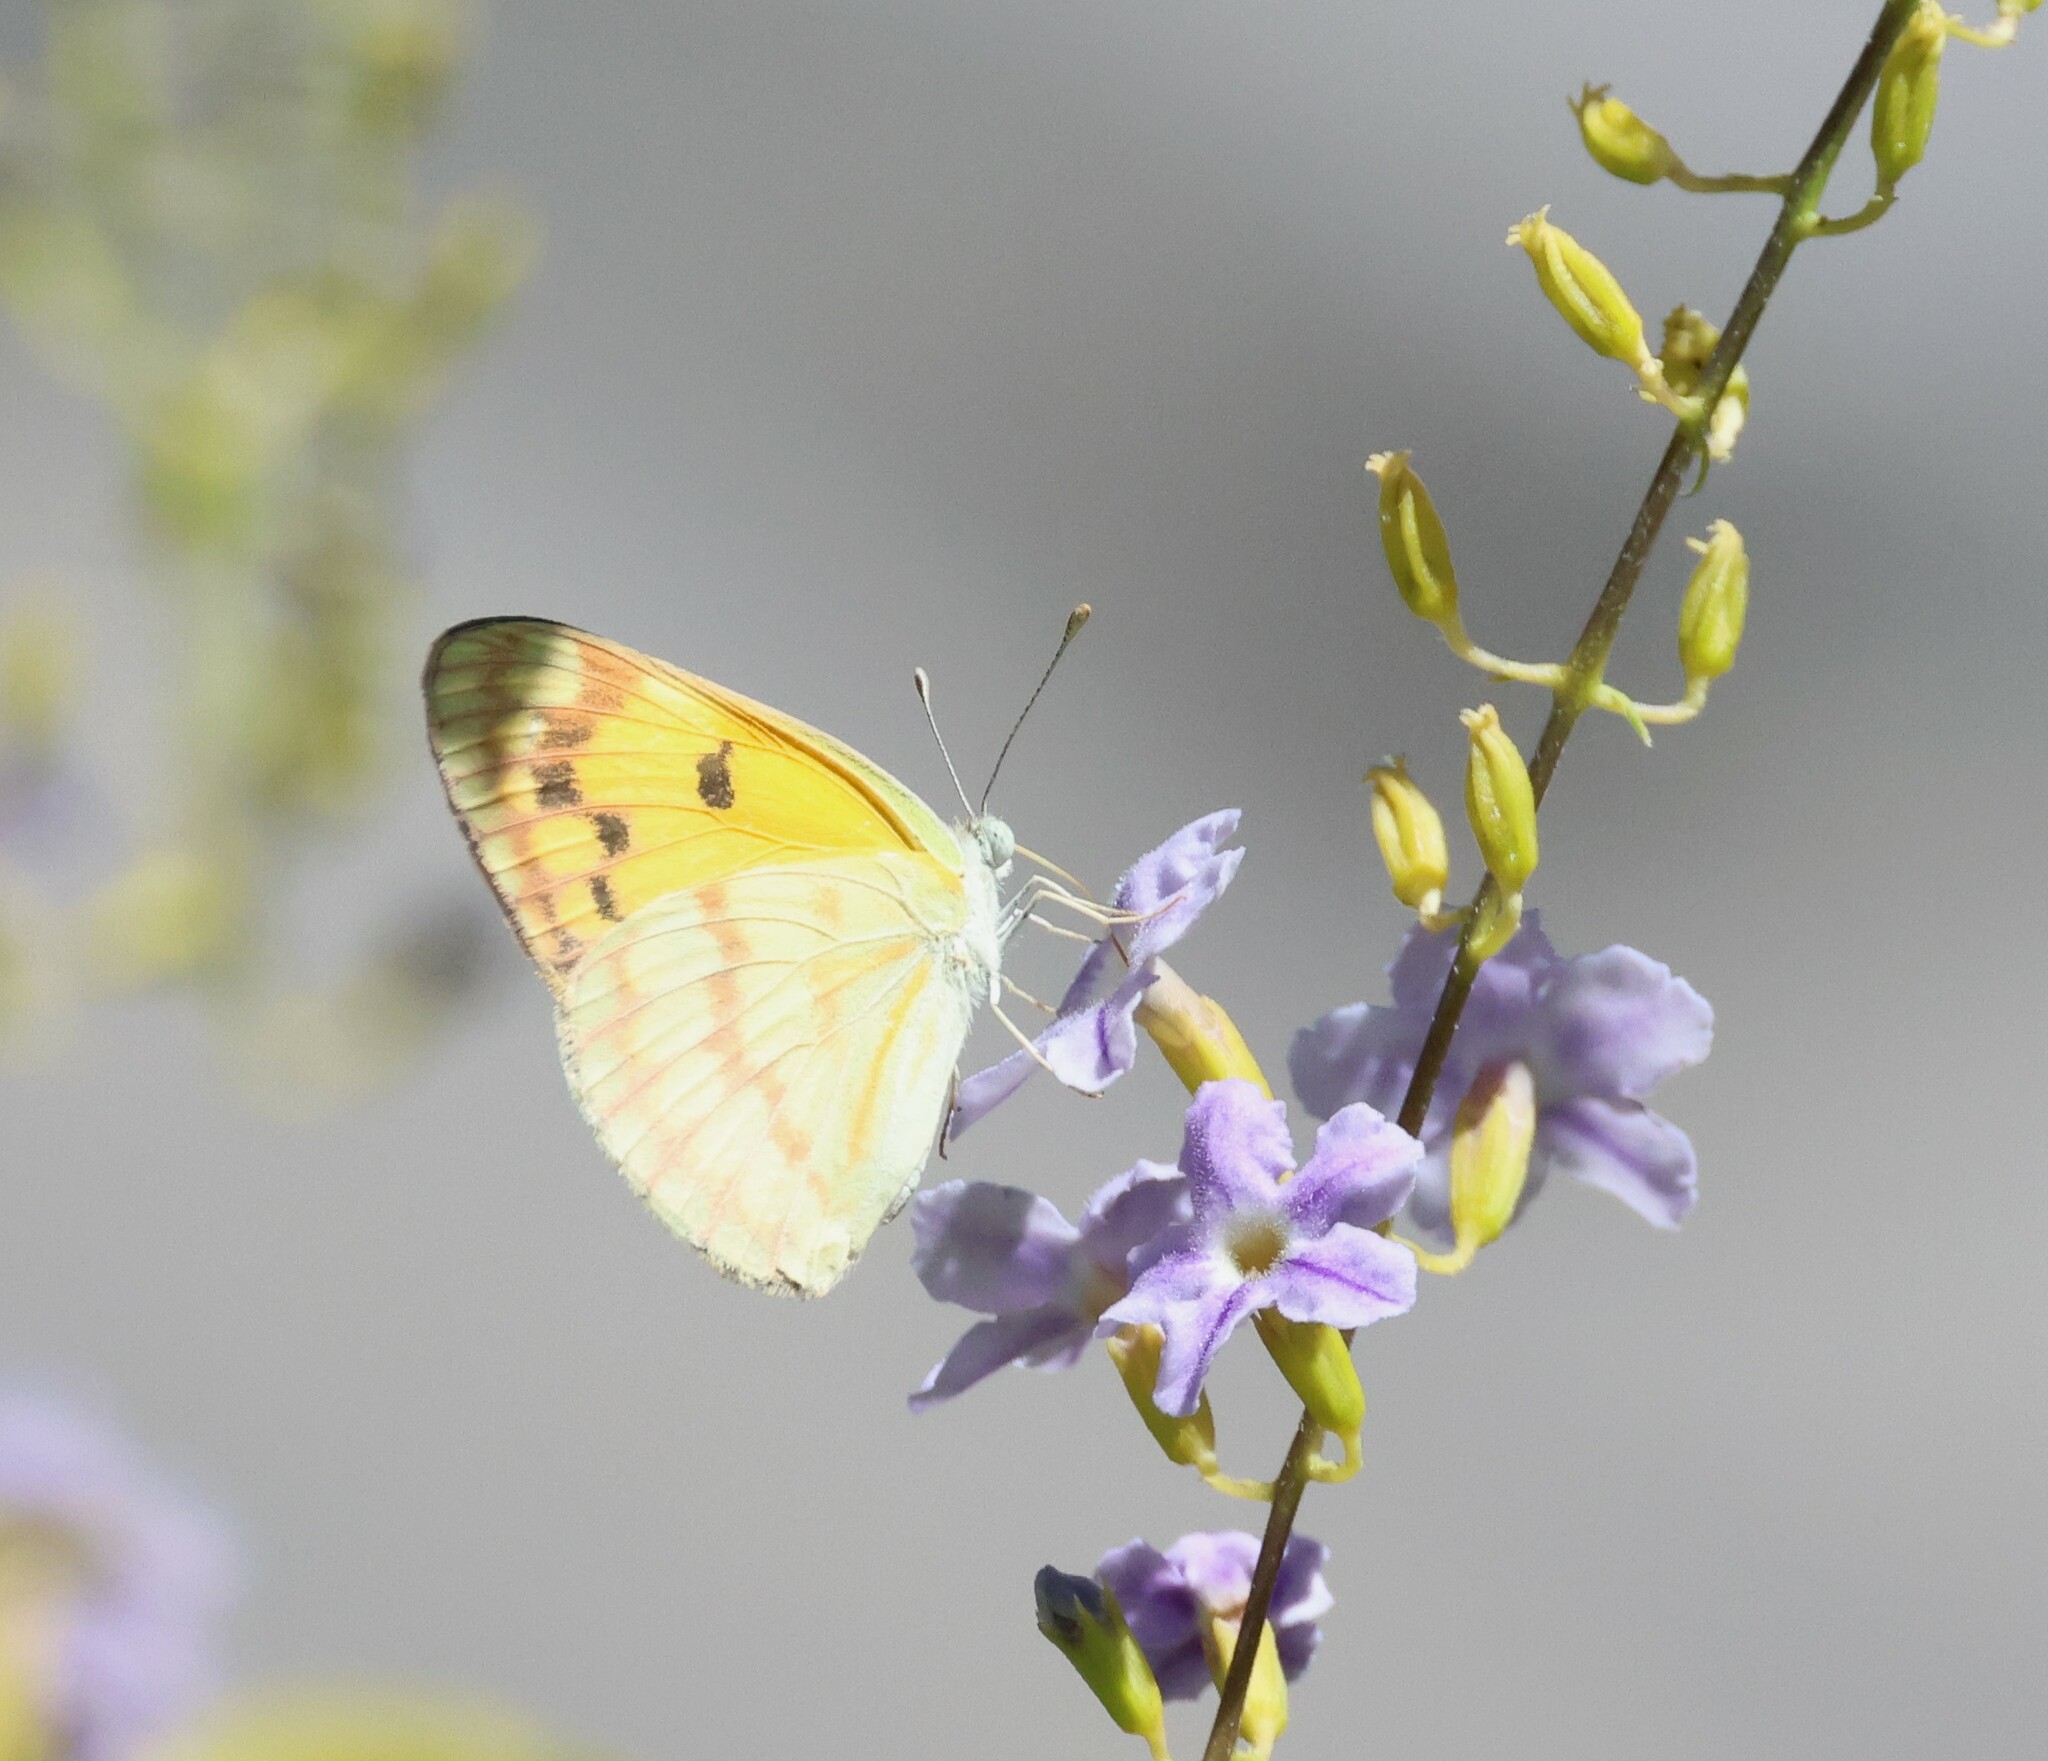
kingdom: Animalia
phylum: Arthropoda
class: Insecta
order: Lepidoptera
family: Pieridae
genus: Colotis
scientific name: Colotis vesta
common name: Veined golden arab
